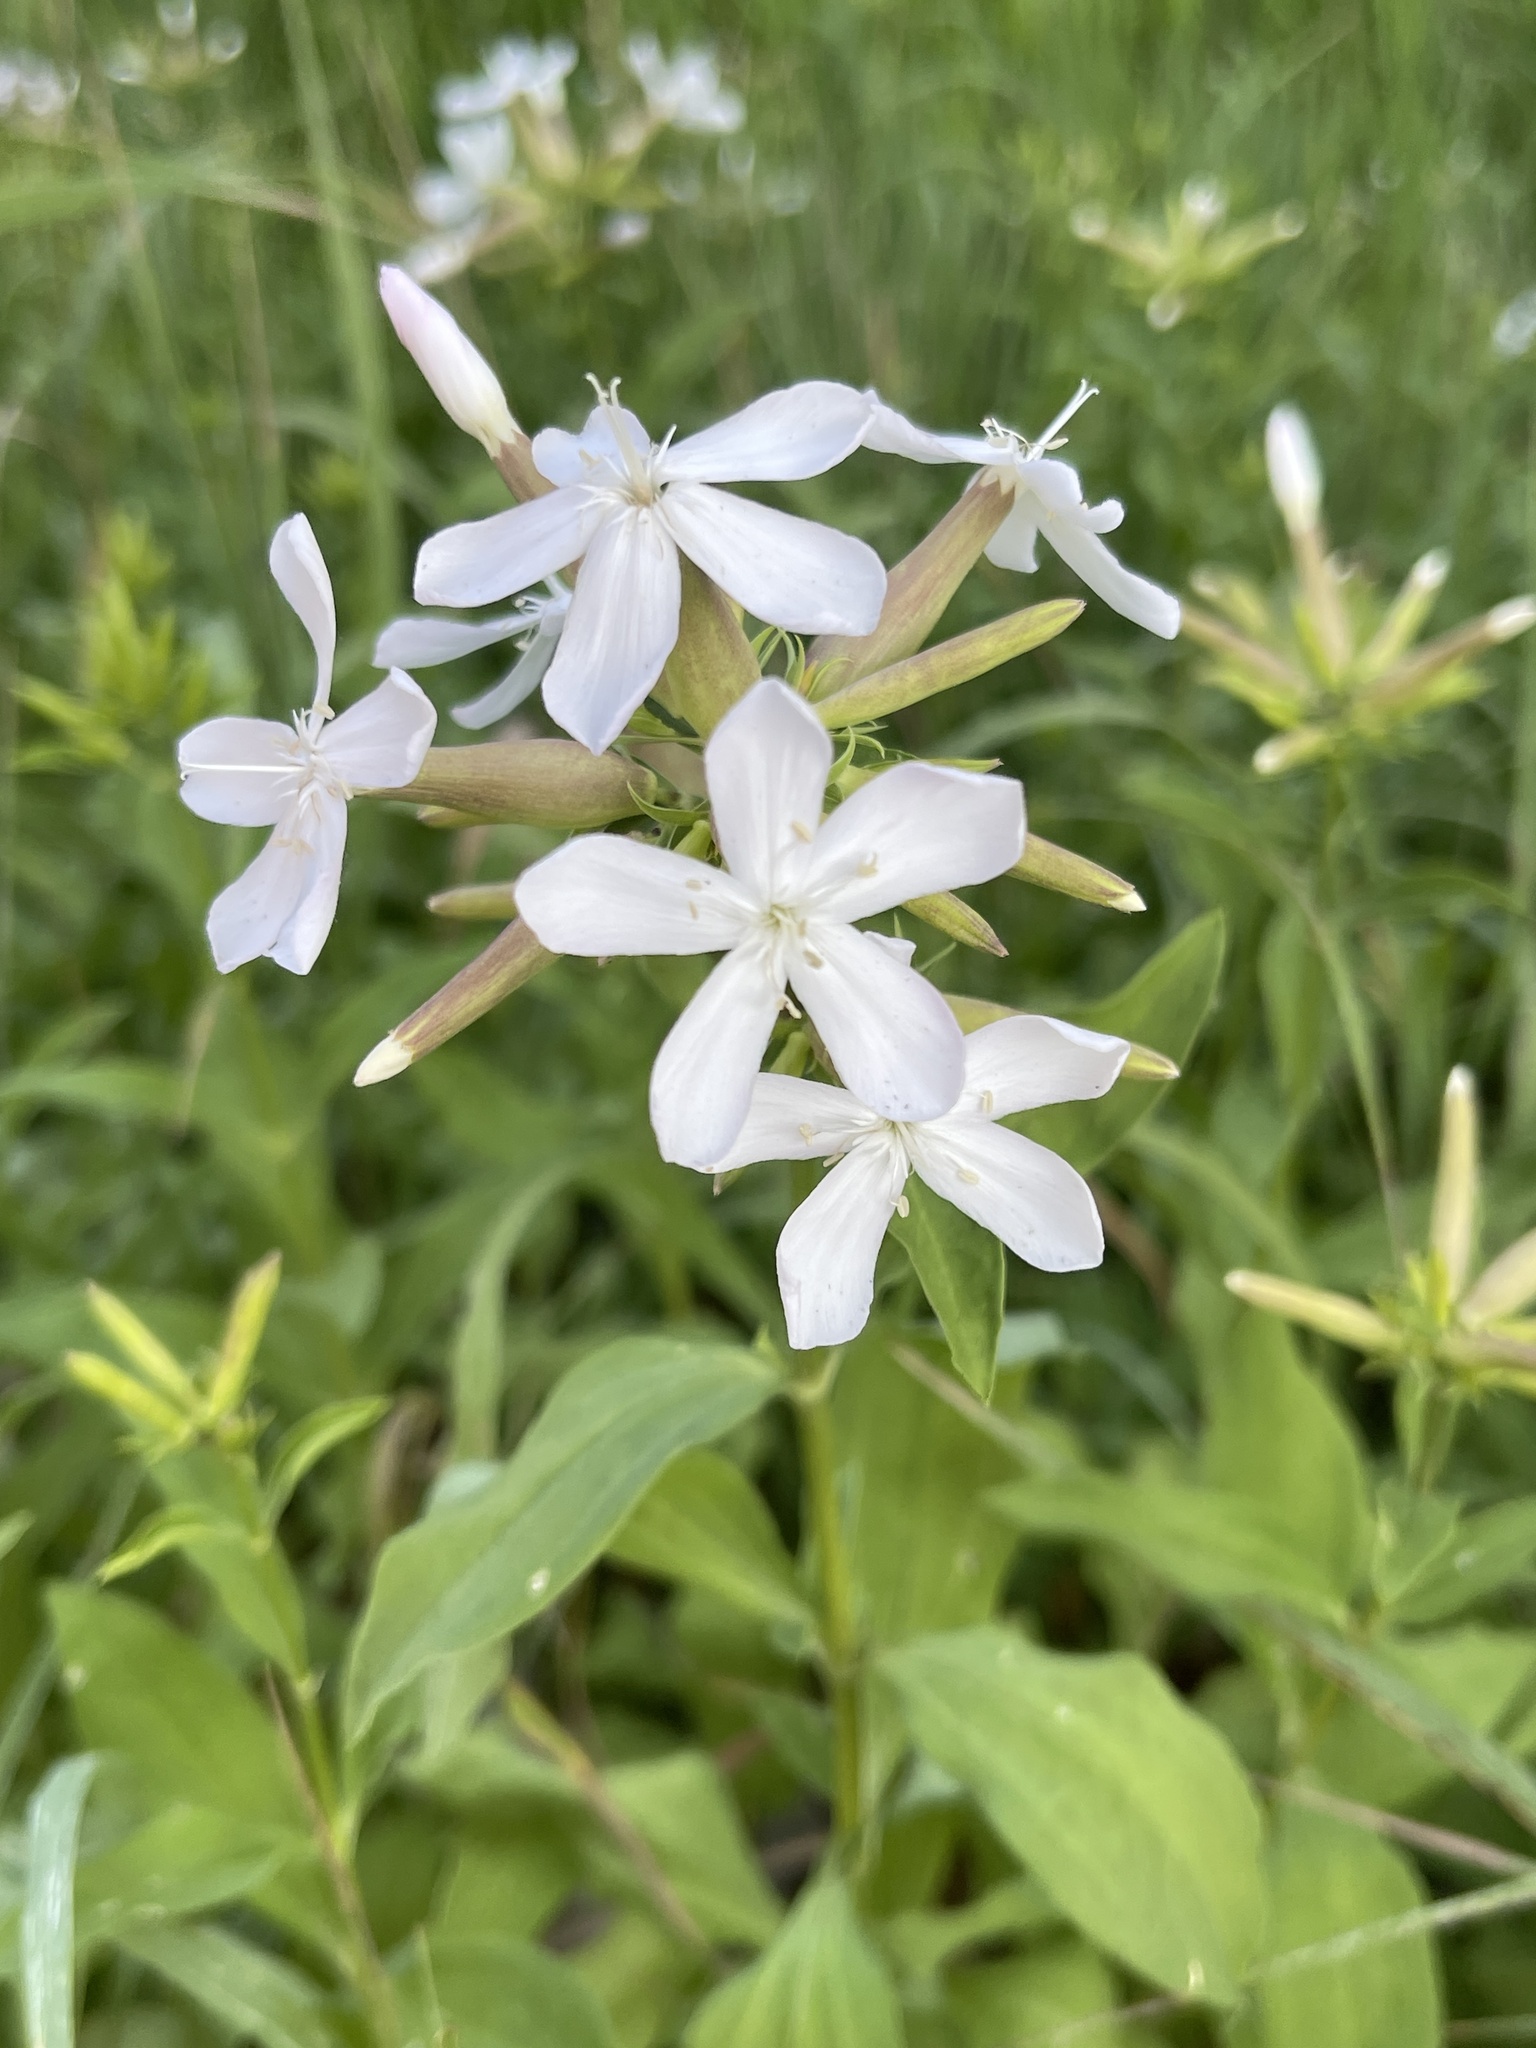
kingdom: Plantae
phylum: Tracheophyta
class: Magnoliopsida
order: Caryophyllales
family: Caryophyllaceae
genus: Saponaria
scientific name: Saponaria officinalis
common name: Soapwort
